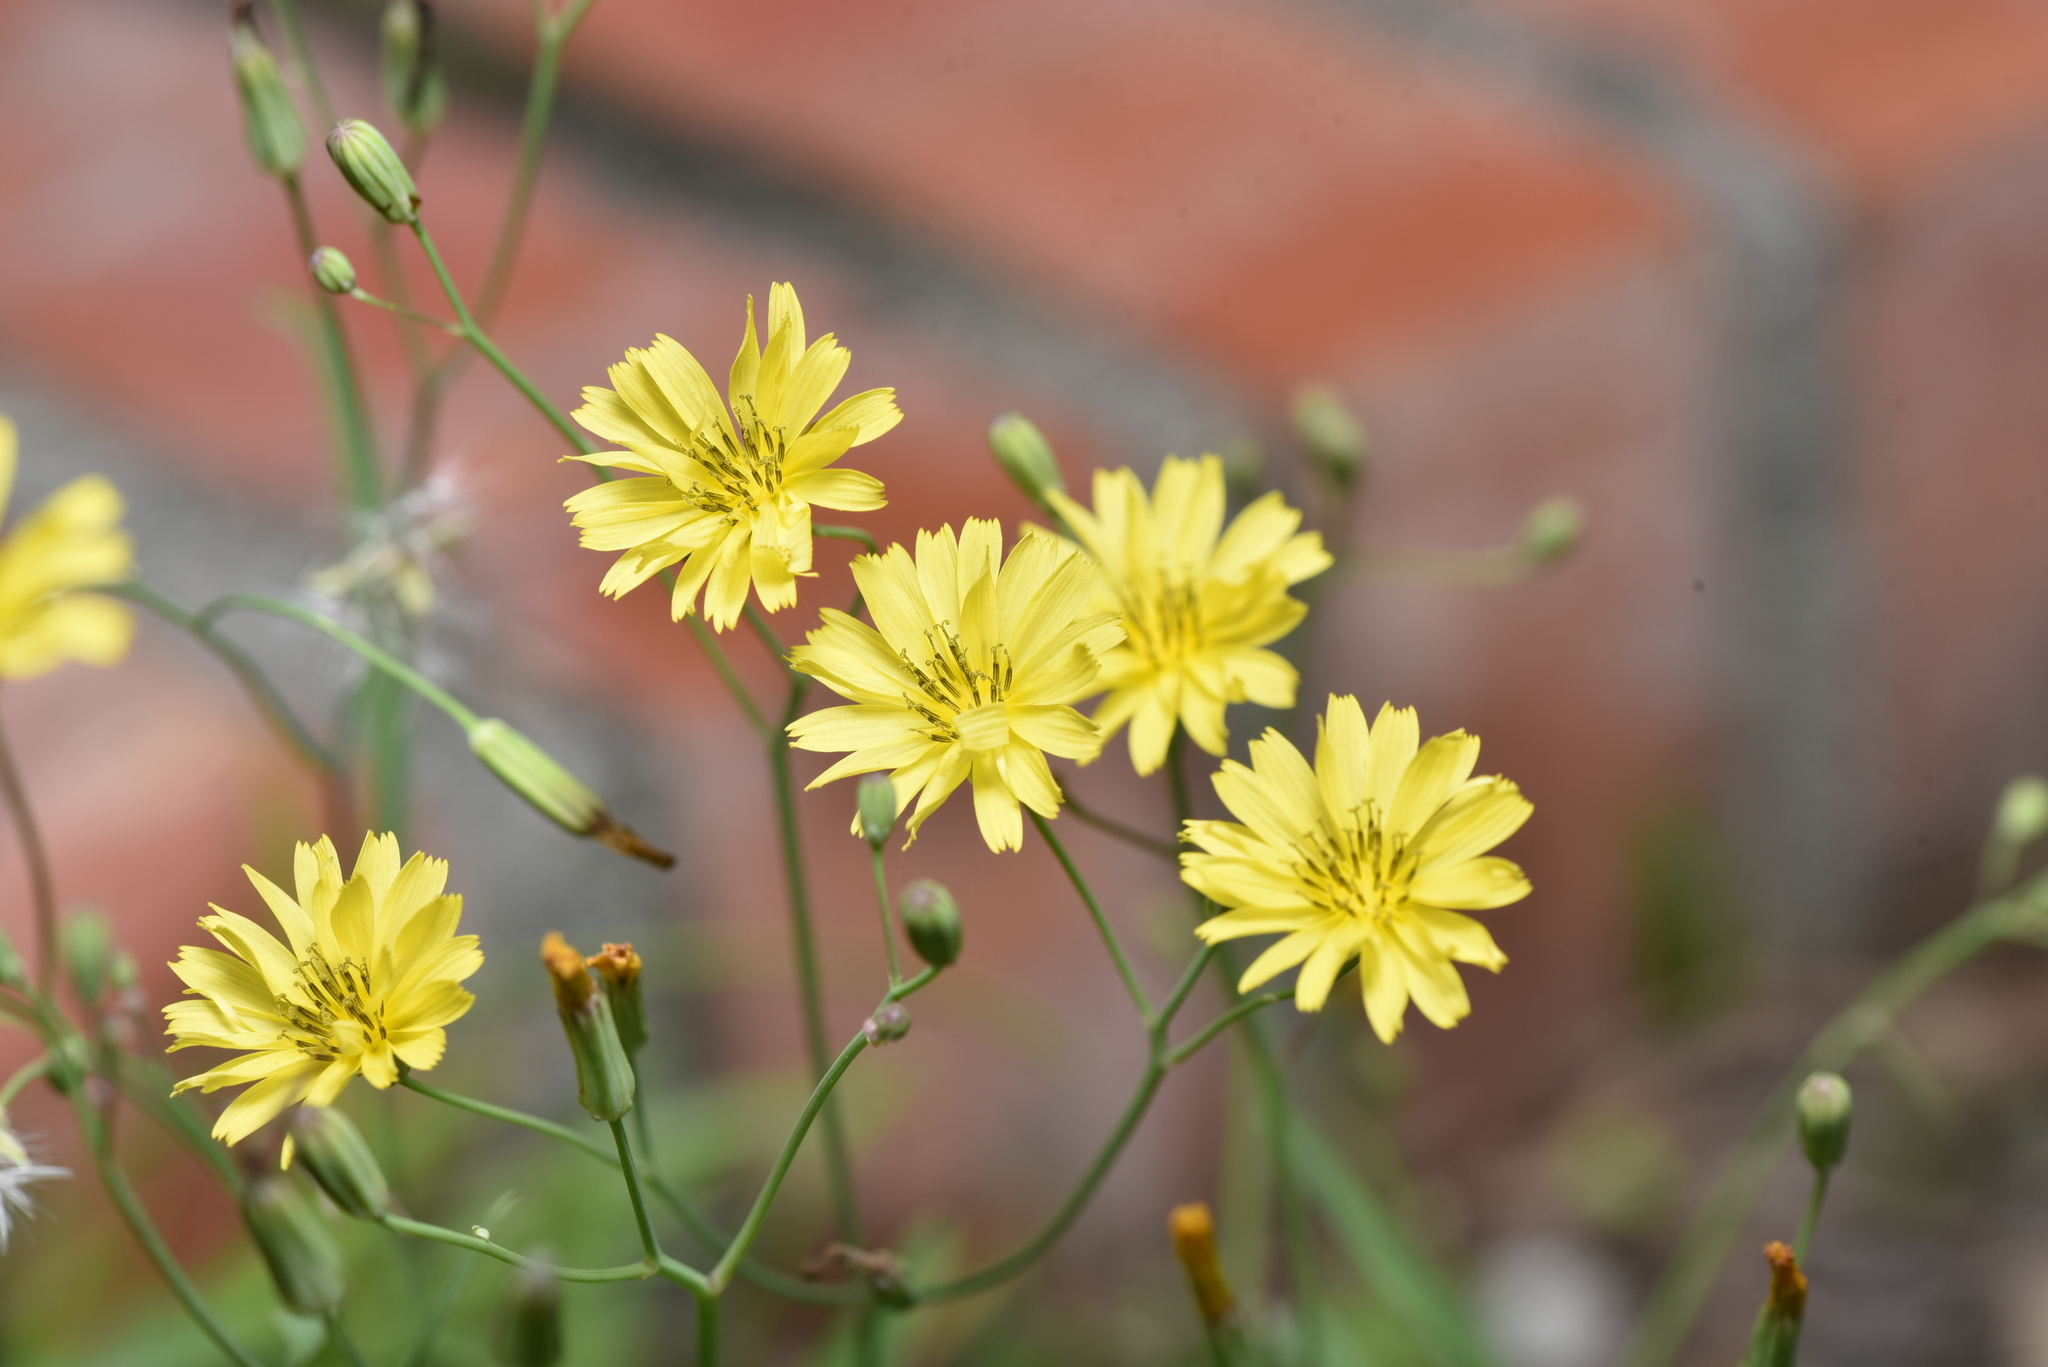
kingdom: Plantae
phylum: Tracheophyta
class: Magnoliopsida
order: Asterales
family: Asteraceae
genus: Ixeris
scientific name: Ixeris chinensis
